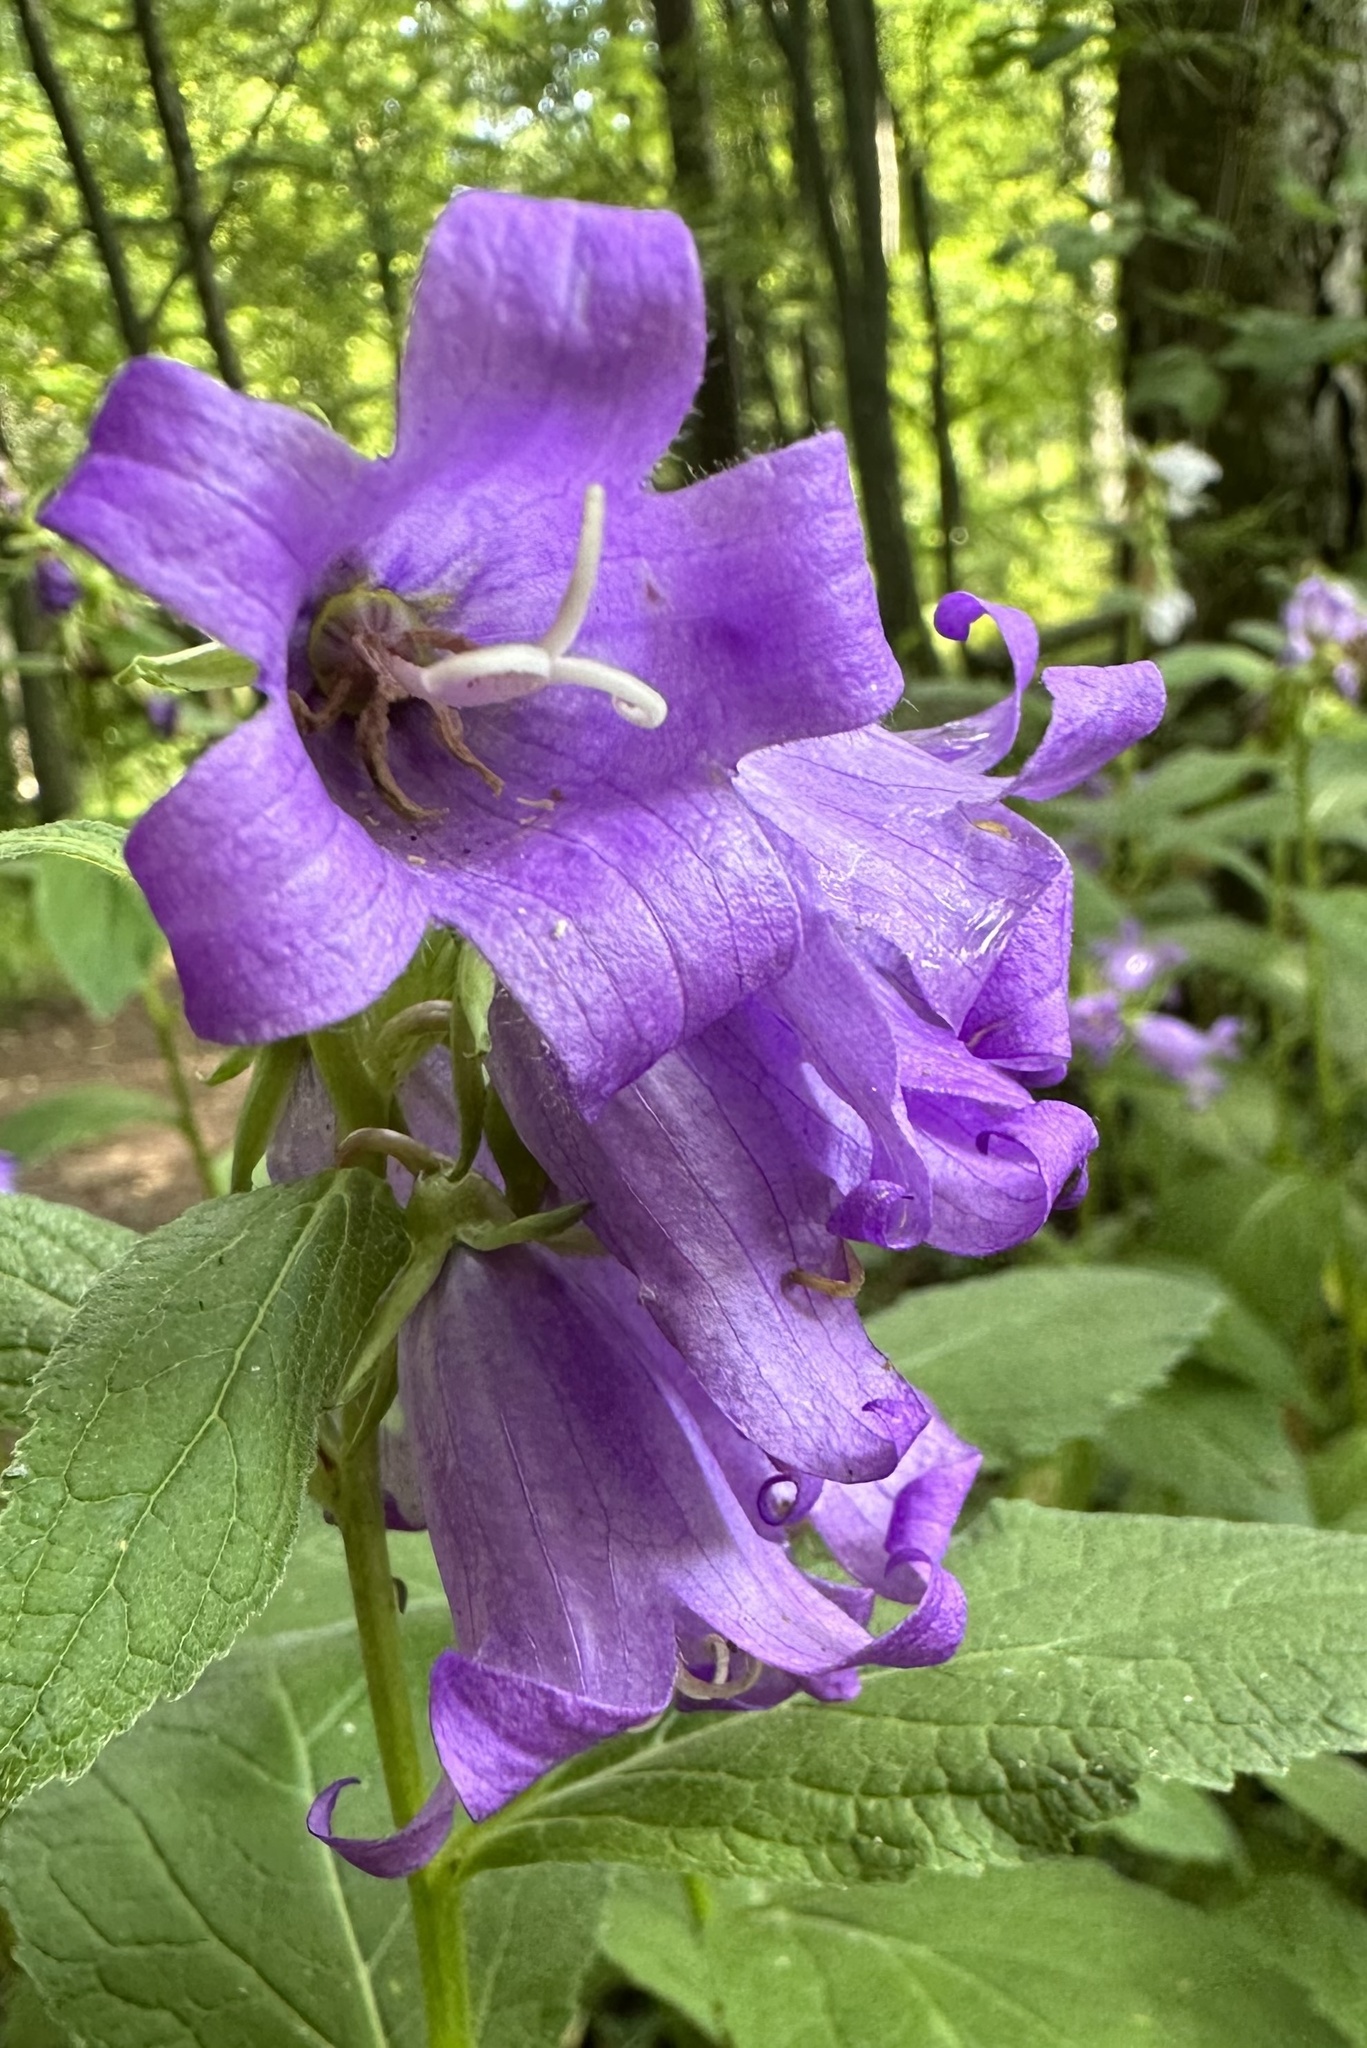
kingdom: Plantae
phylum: Tracheophyta
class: Magnoliopsida
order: Asterales
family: Campanulaceae
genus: Campanula
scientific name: Campanula latifolia
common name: Giant bellflower
